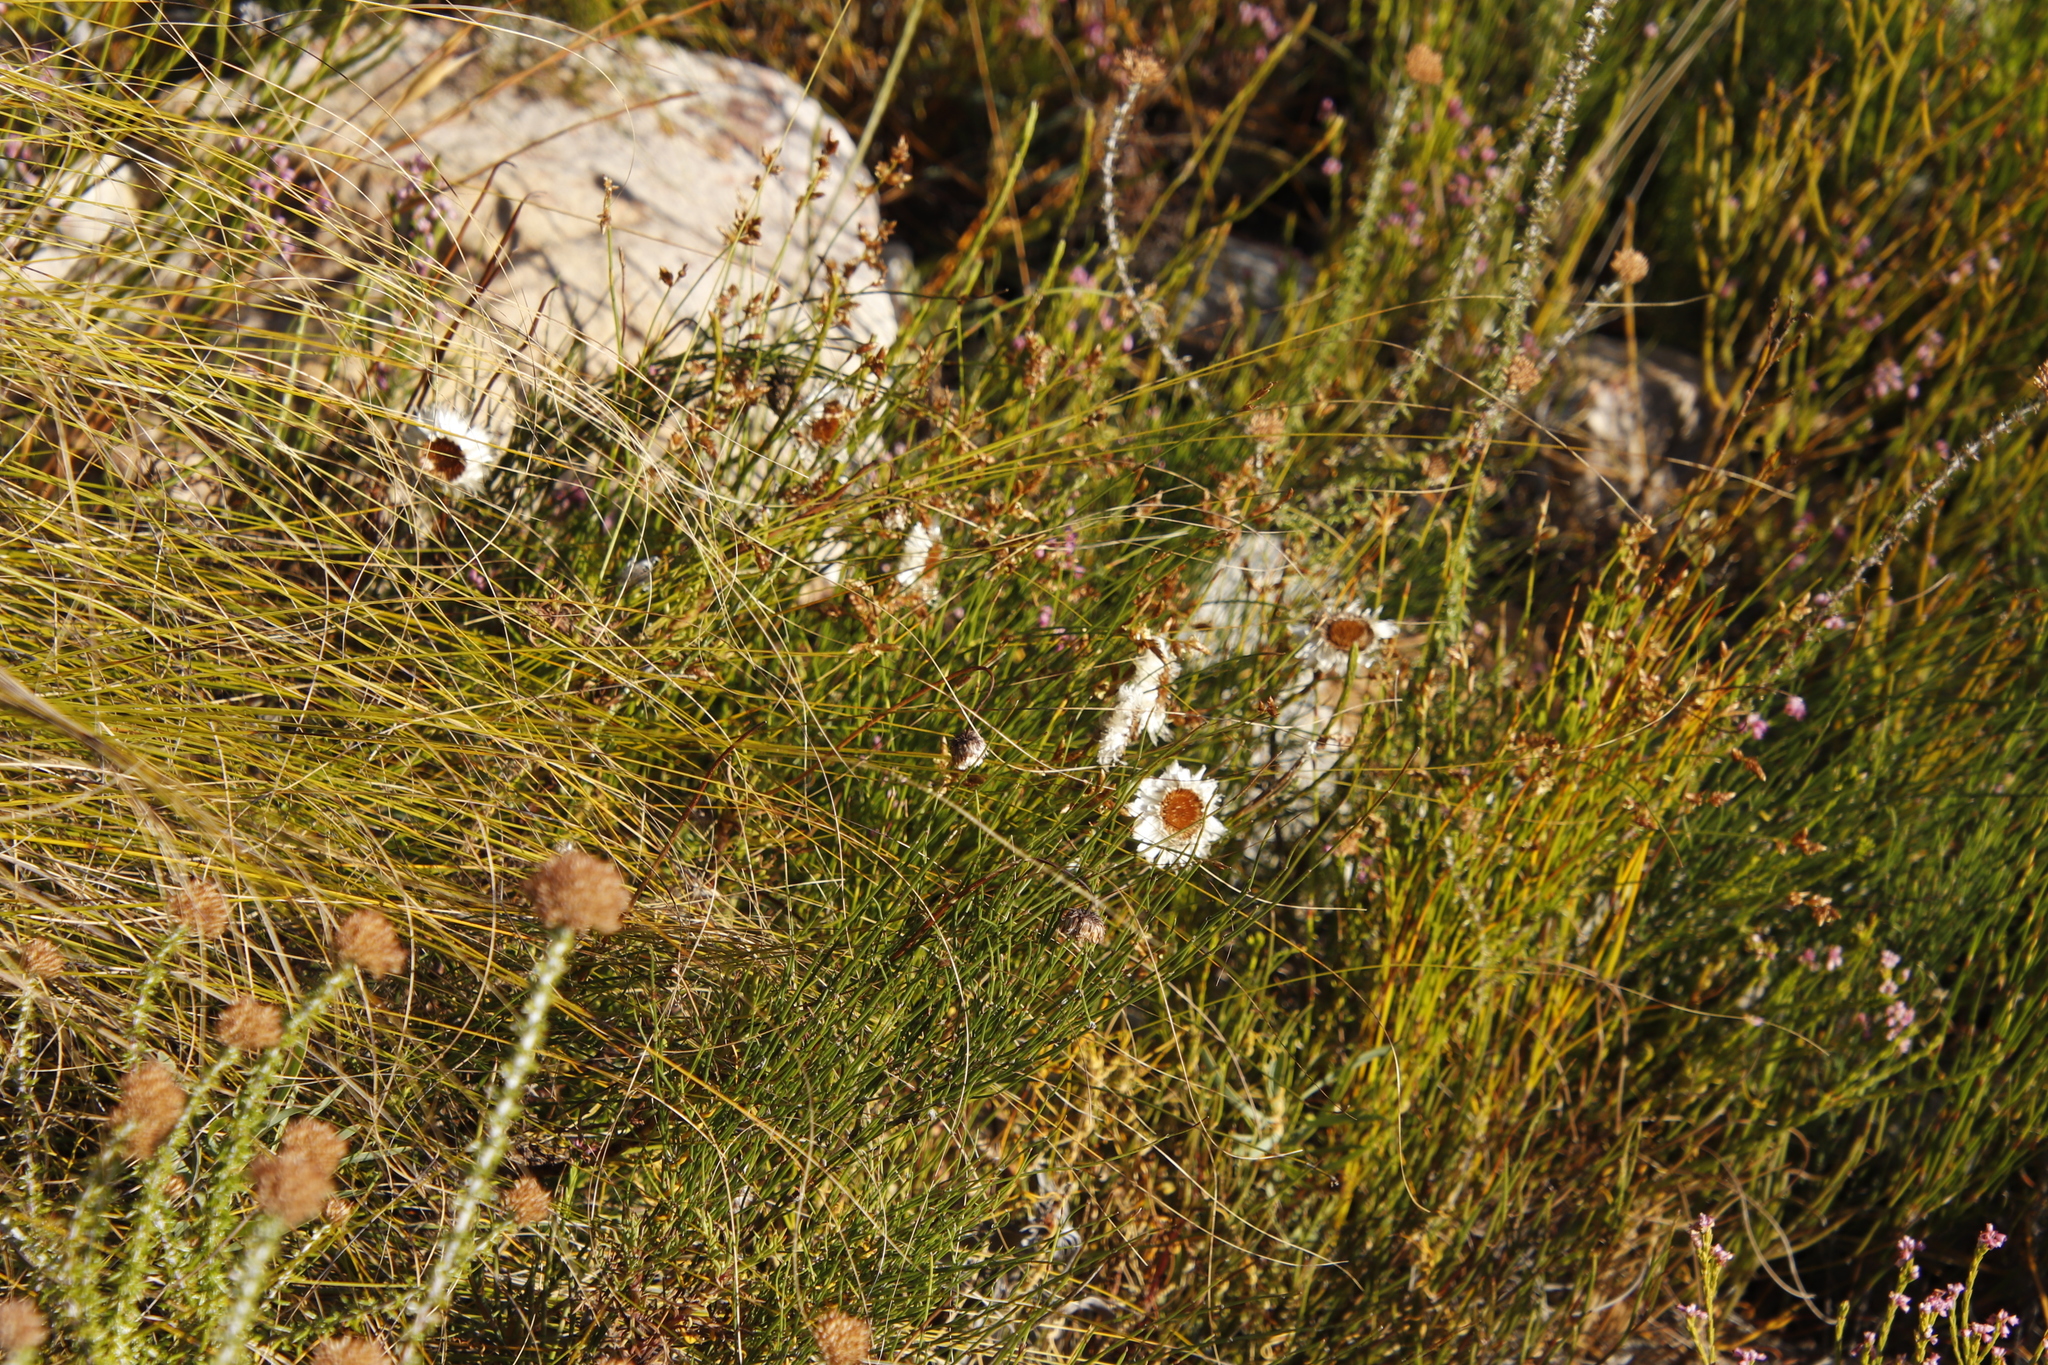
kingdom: Plantae
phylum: Tracheophyta
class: Magnoliopsida
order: Asterales
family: Asteraceae
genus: Edmondia
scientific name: Edmondia sesamoides
